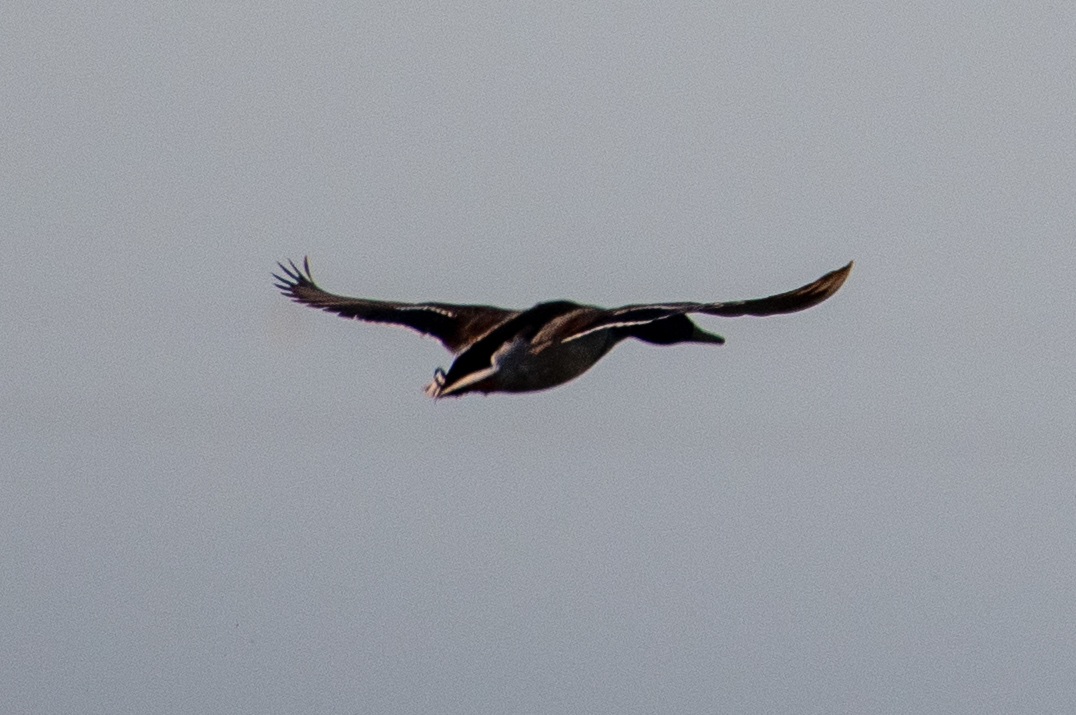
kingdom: Animalia
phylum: Chordata
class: Aves
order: Anseriformes
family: Anatidae
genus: Anas
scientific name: Anas platyrhynchos
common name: Mallard
